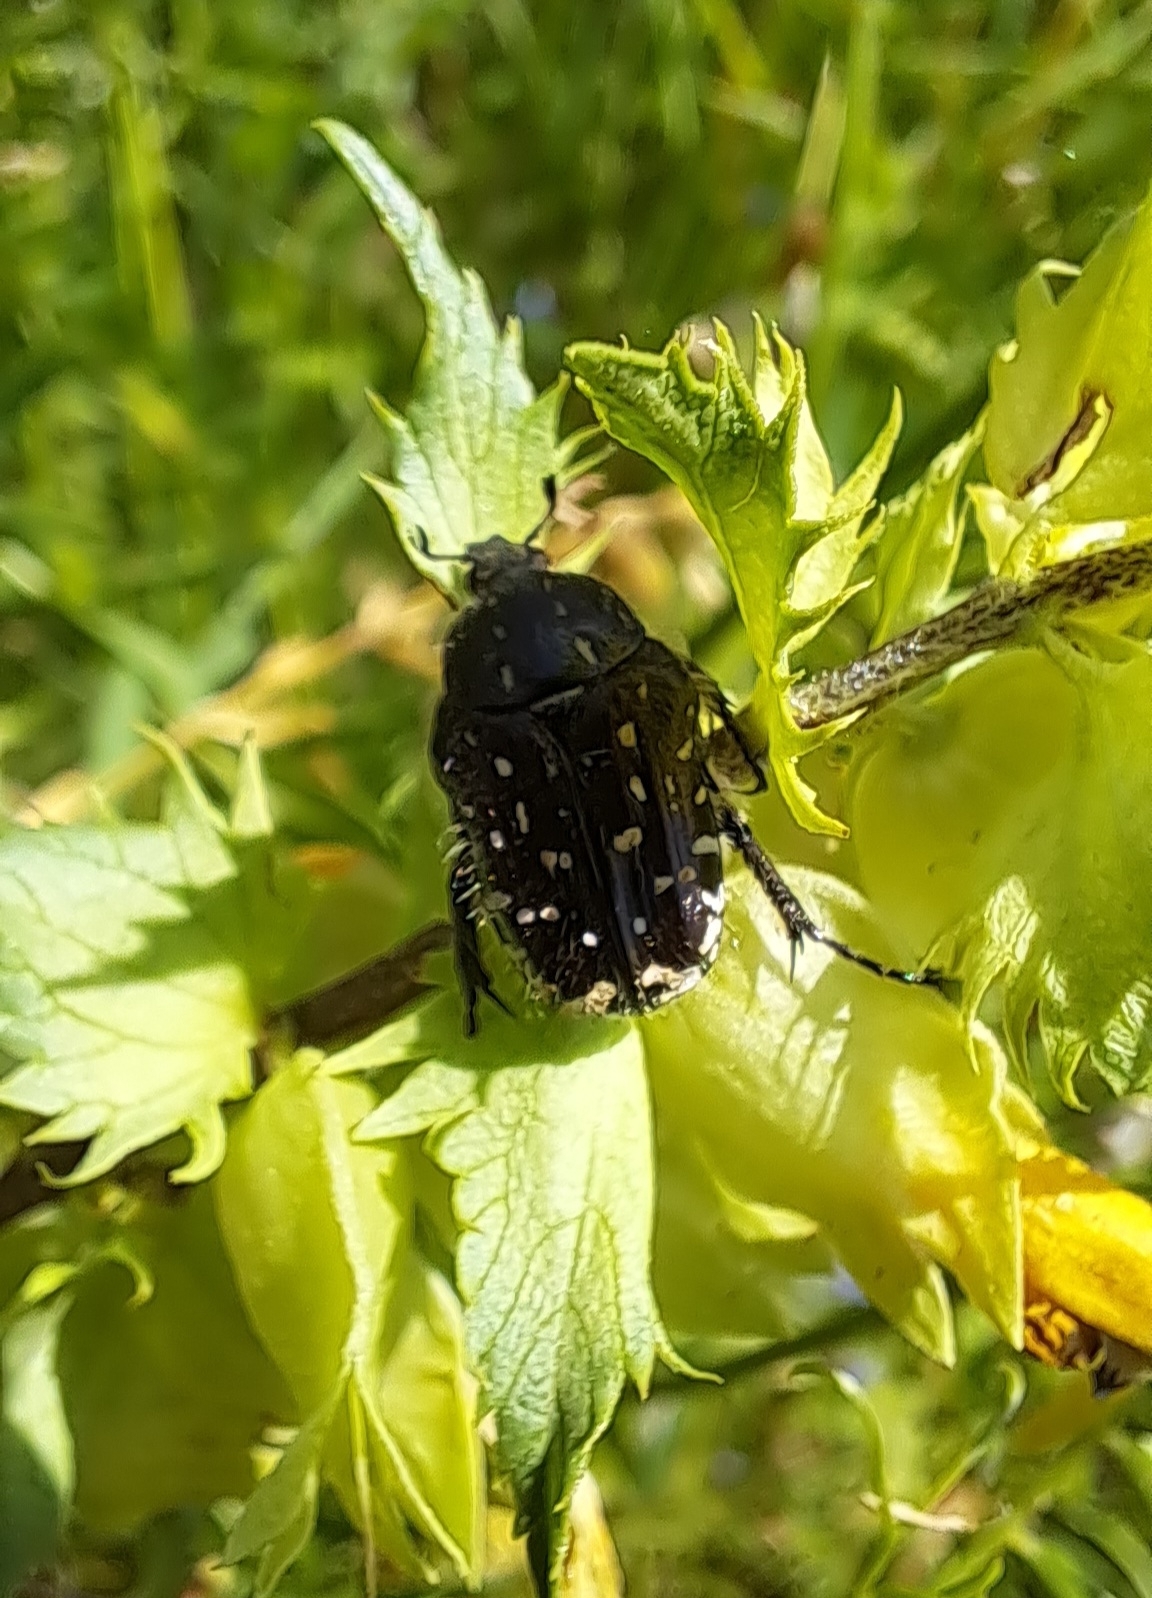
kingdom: Animalia
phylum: Arthropoda
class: Insecta
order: Coleoptera
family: Scarabaeidae
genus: Oxythyrea
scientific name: Oxythyrea funesta
